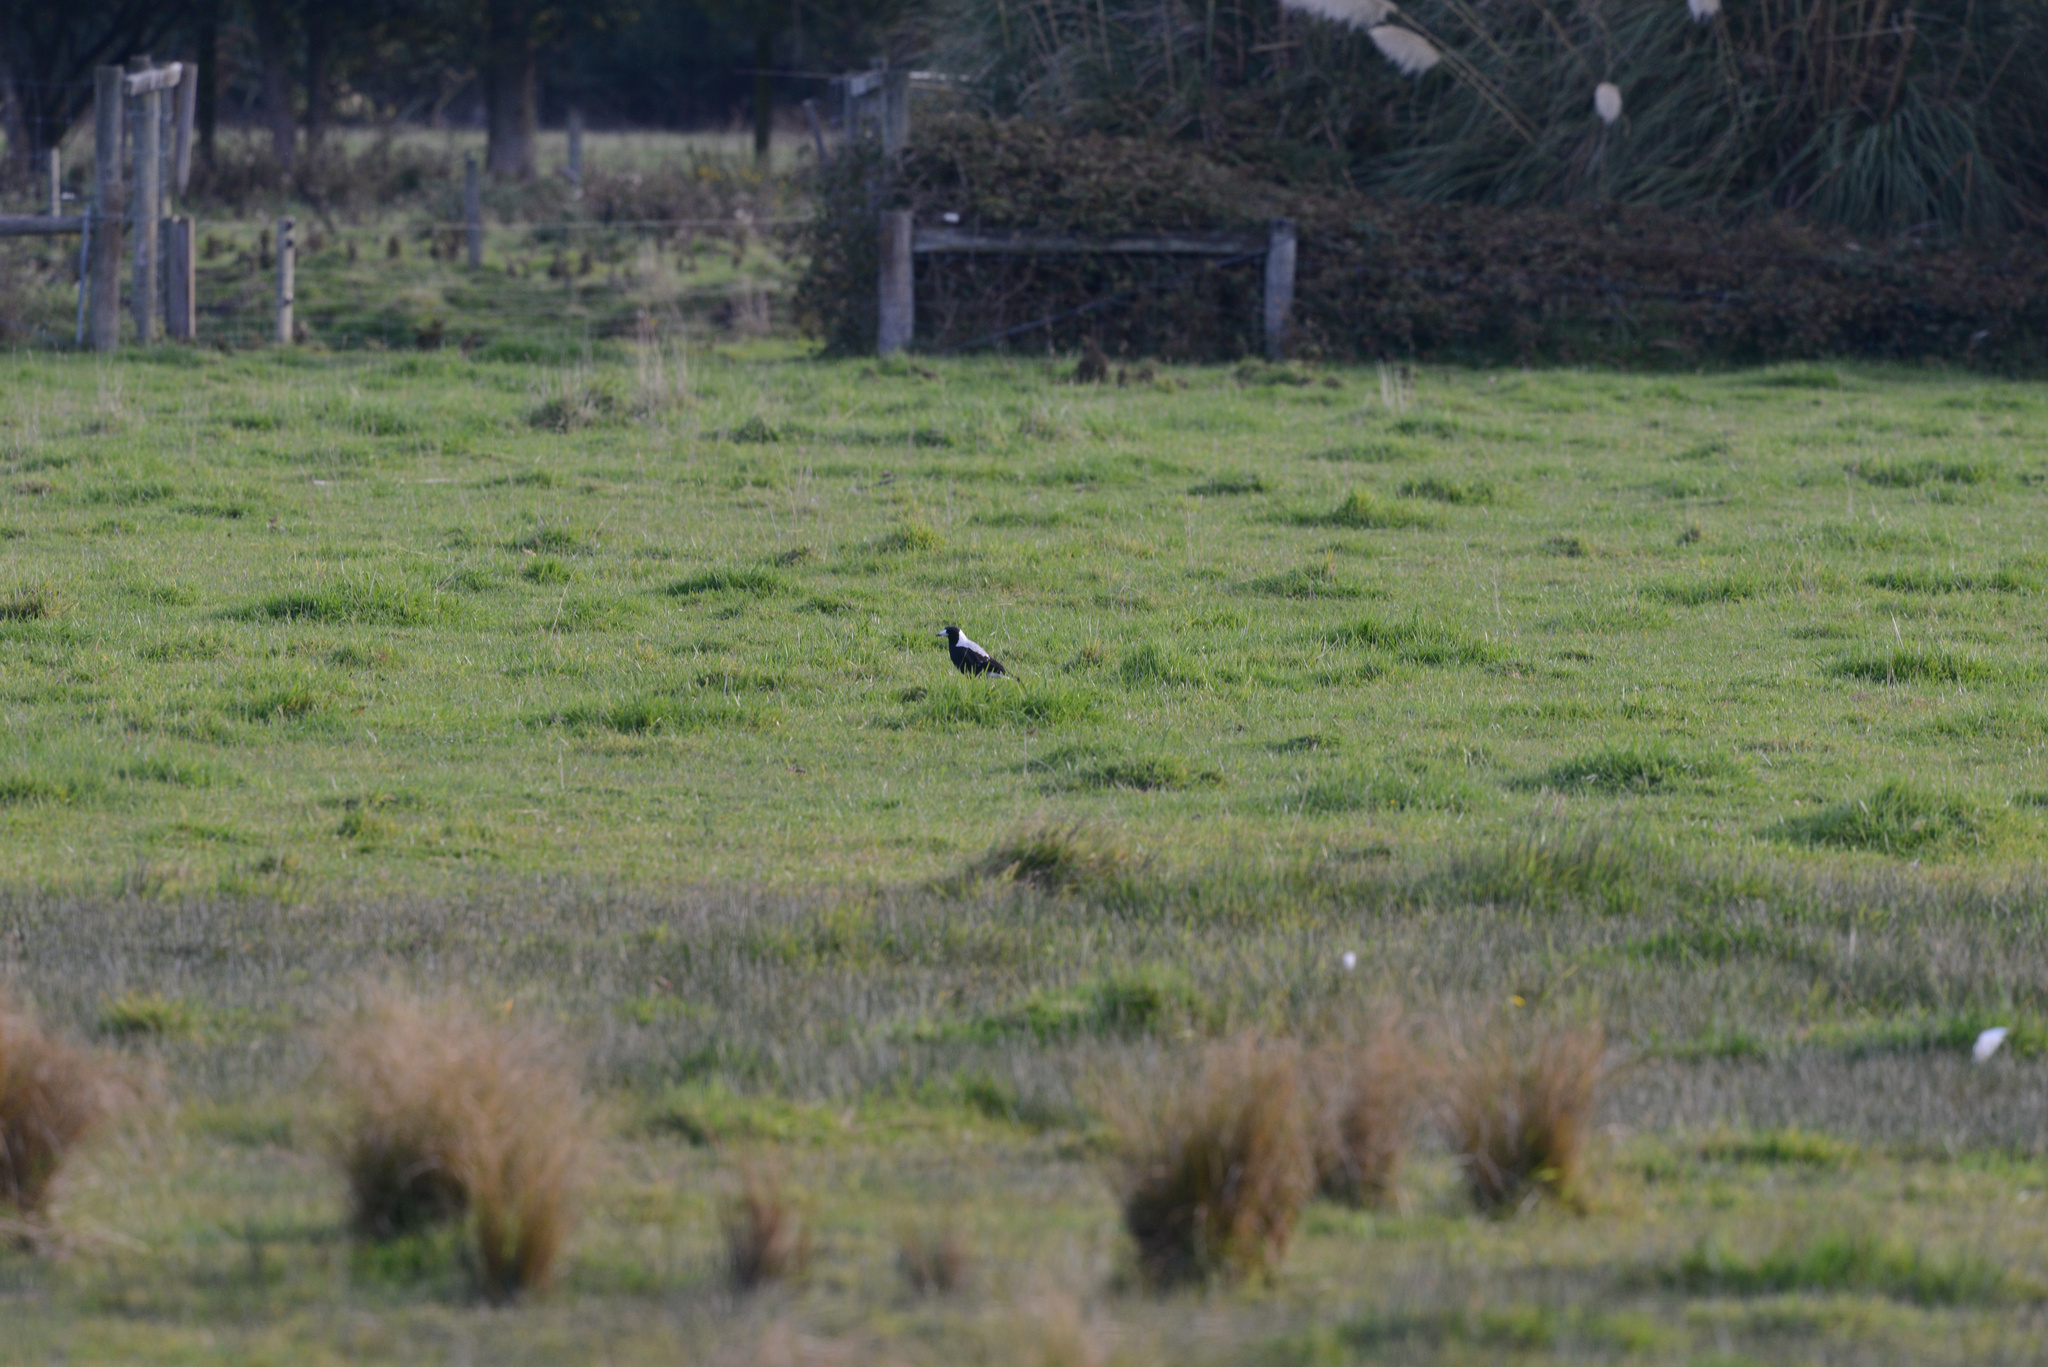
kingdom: Animalia
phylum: Chordata
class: Aves
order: Passeriformes
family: Cracticidae
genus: Gymnorhina
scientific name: Gymnorhina tibicen
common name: Australian magpie
